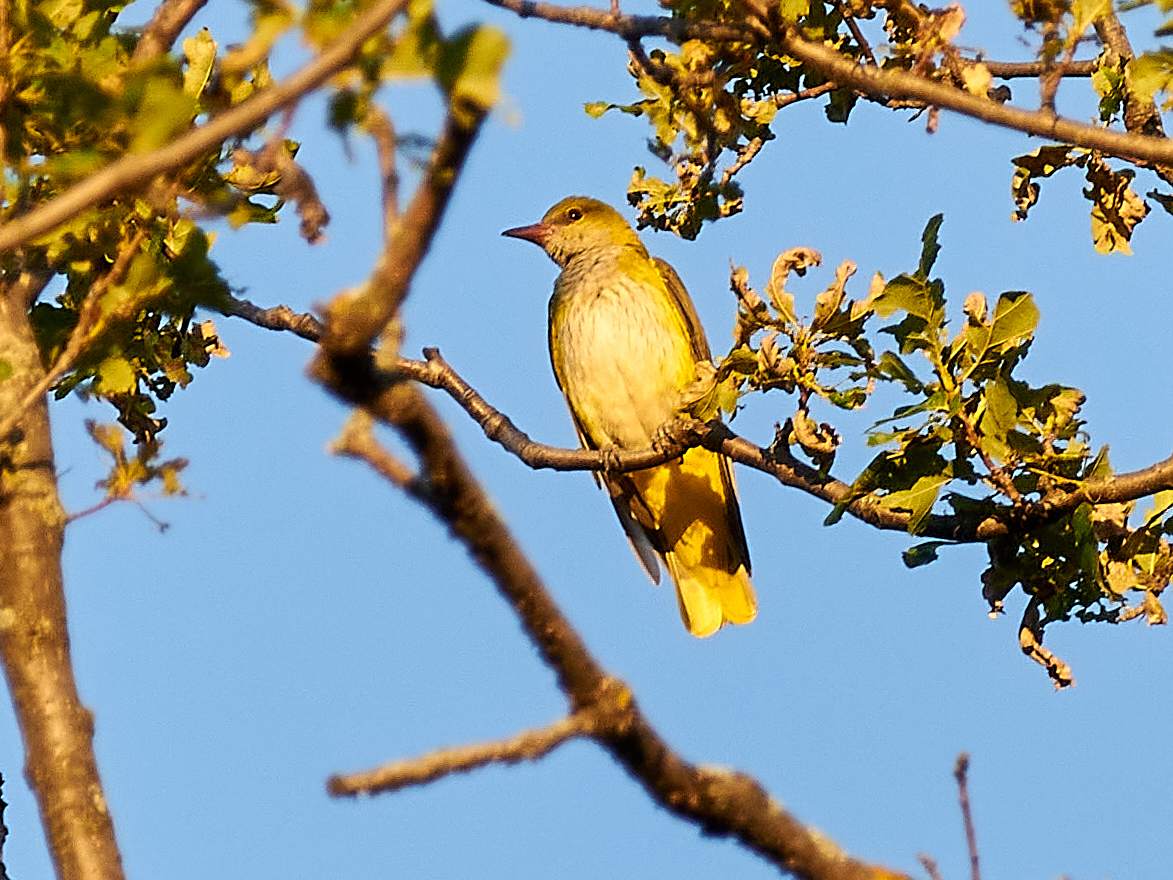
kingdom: Animalia
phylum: Chordata
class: Aves
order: Passeriformes
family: Oriolidae
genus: Oriolus
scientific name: Oriolus oriolus
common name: Eurasian golden oriole
